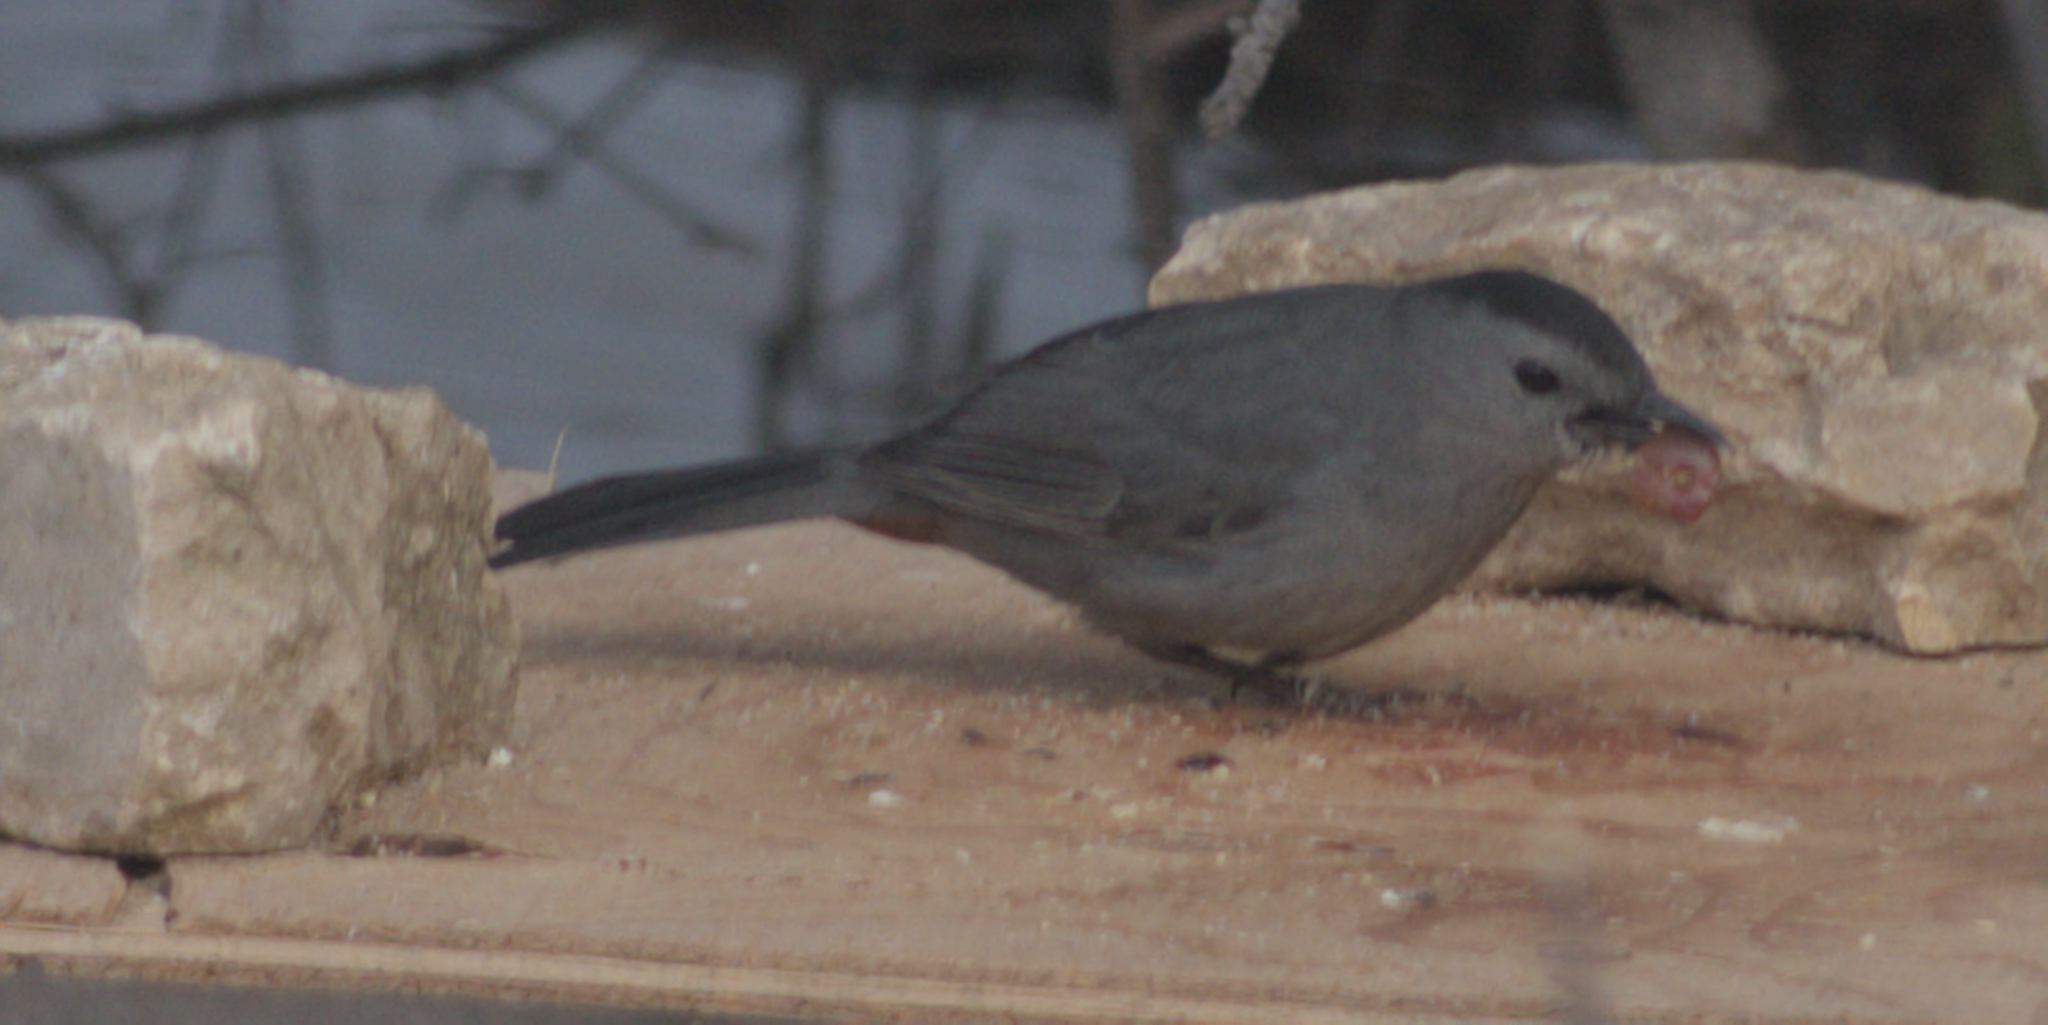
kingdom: Animalia
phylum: Chordata
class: Aves
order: Passeriformes
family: Mimidae
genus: Dumetella
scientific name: Dumetella carolinensis
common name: Gray catbird
